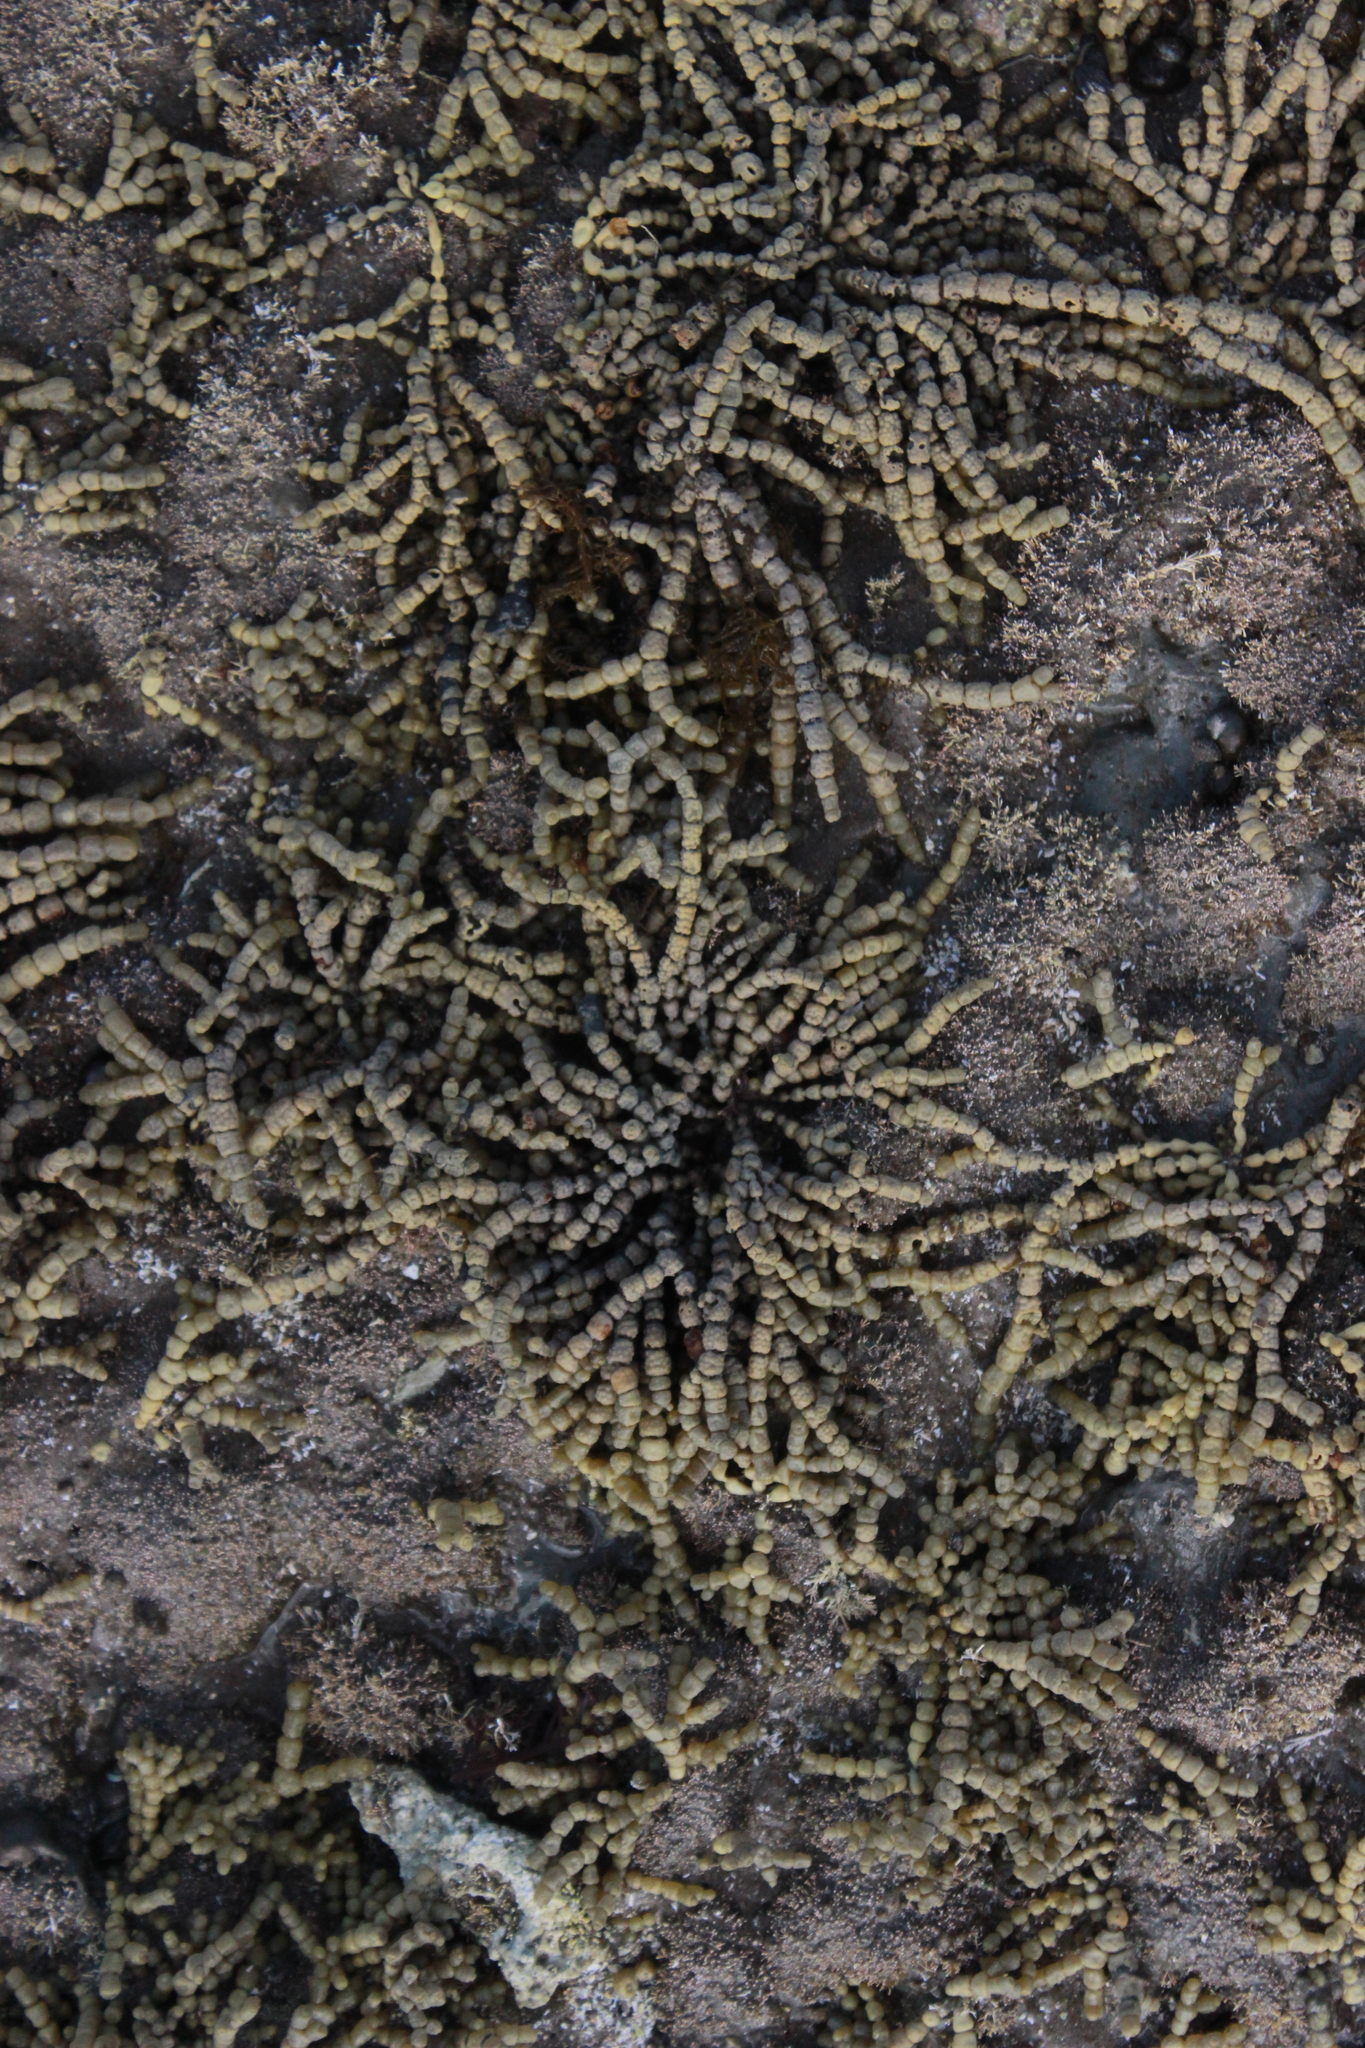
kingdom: Chromista
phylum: Ochrophyta
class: Phaeophyceae
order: Fucales
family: Hormosiraceae
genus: Hormosira
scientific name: Hormosira banksii
